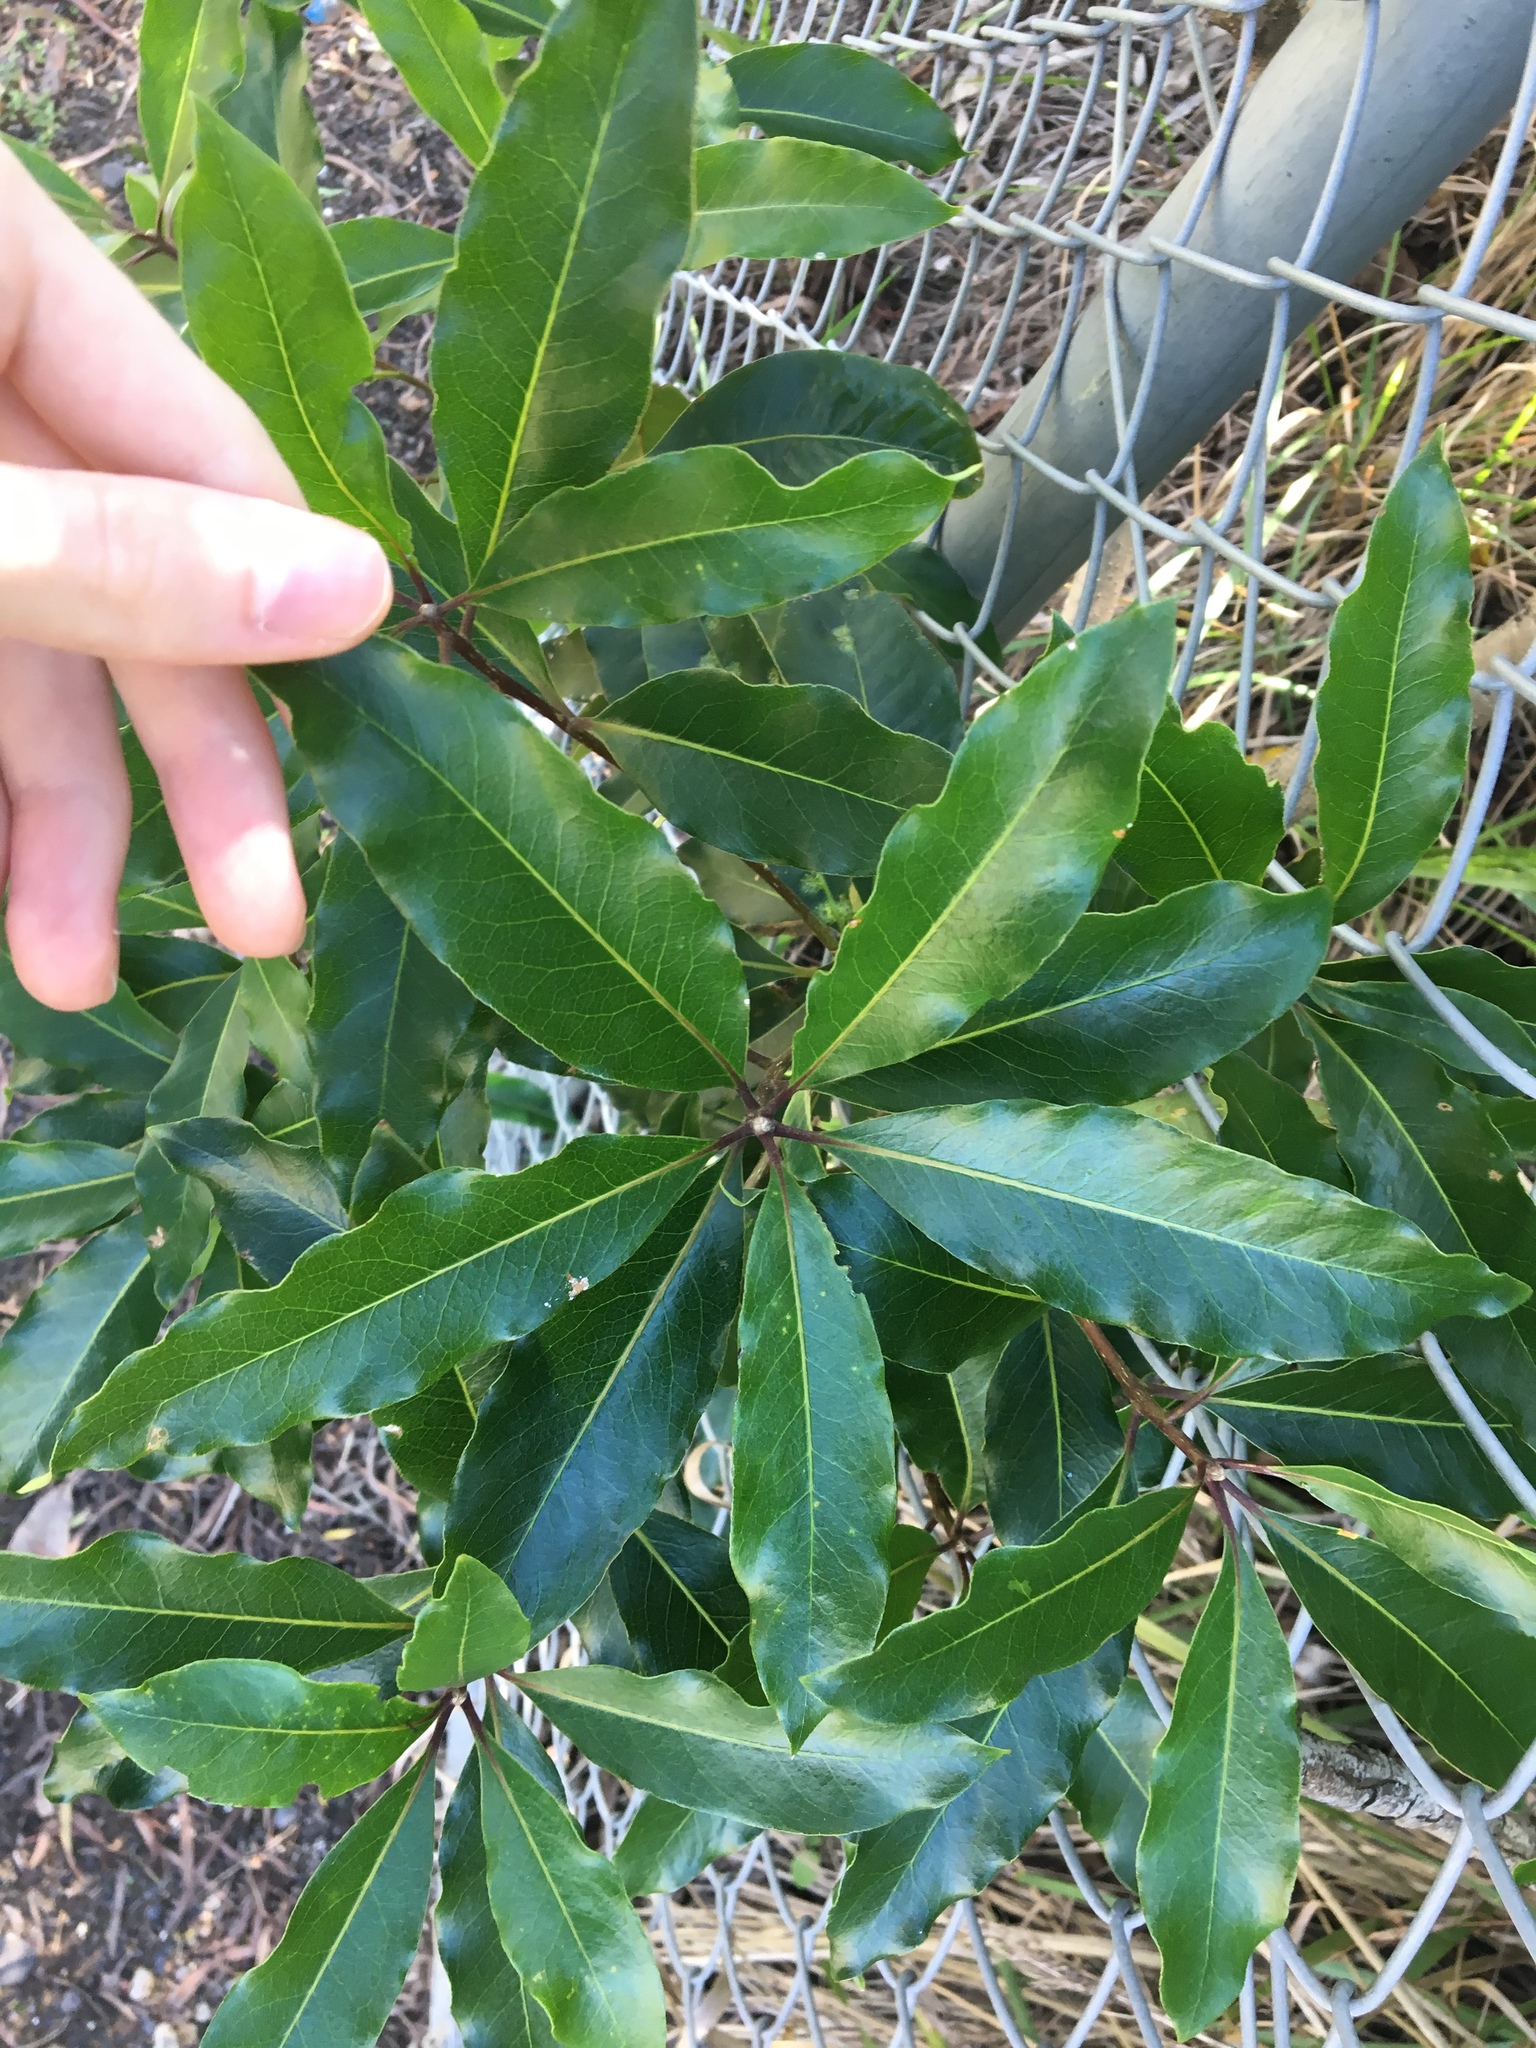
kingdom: Plantae
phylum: Tracheophyta
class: Magnoliopsida
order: Apiales
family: Pittosporaceae
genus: Pittosporum
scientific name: Pittosporum undulatum
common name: Australian cheesewood
